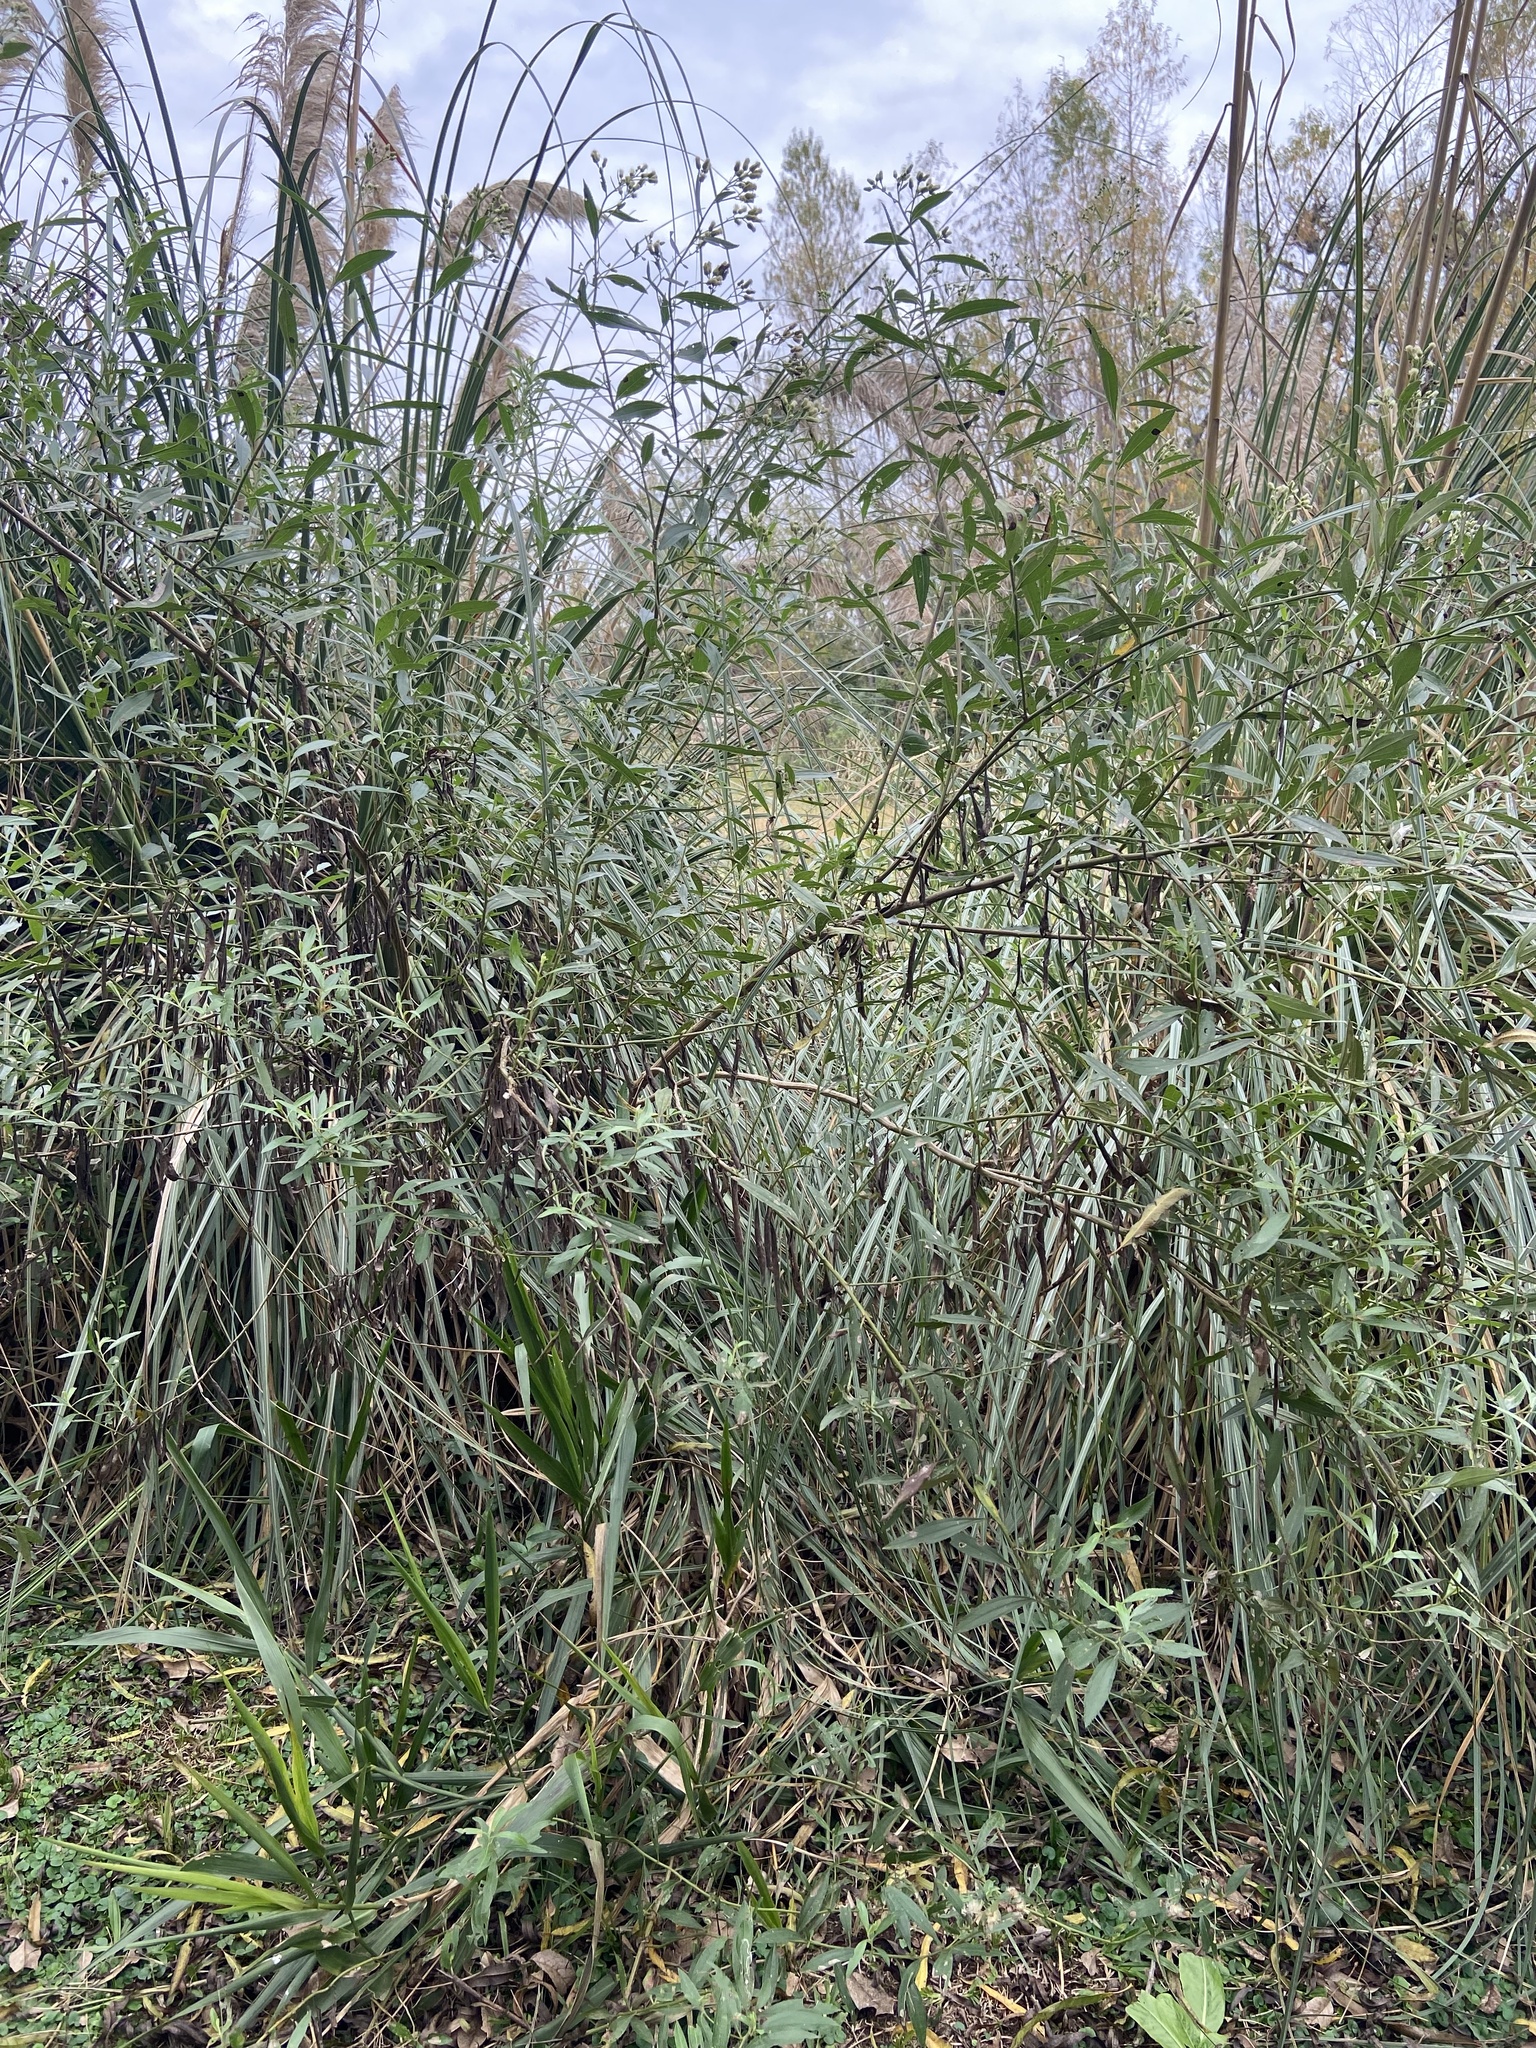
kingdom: Plantae
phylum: Tracheophyta
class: Magnoliopsida
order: Asterales
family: Asteraceae
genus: Baccharis
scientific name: Baccharis punctulata
